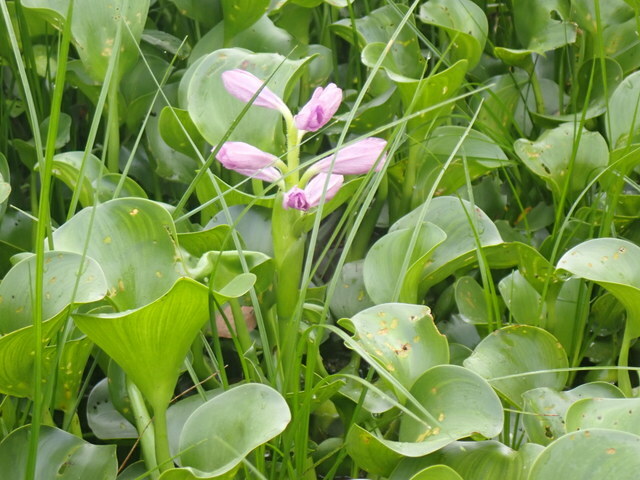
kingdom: Plantae
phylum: Tracheophyta
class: Liliopsida
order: Commelinales
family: Pontederiaceae
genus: Pontederia
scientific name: Pontederia crassipes
